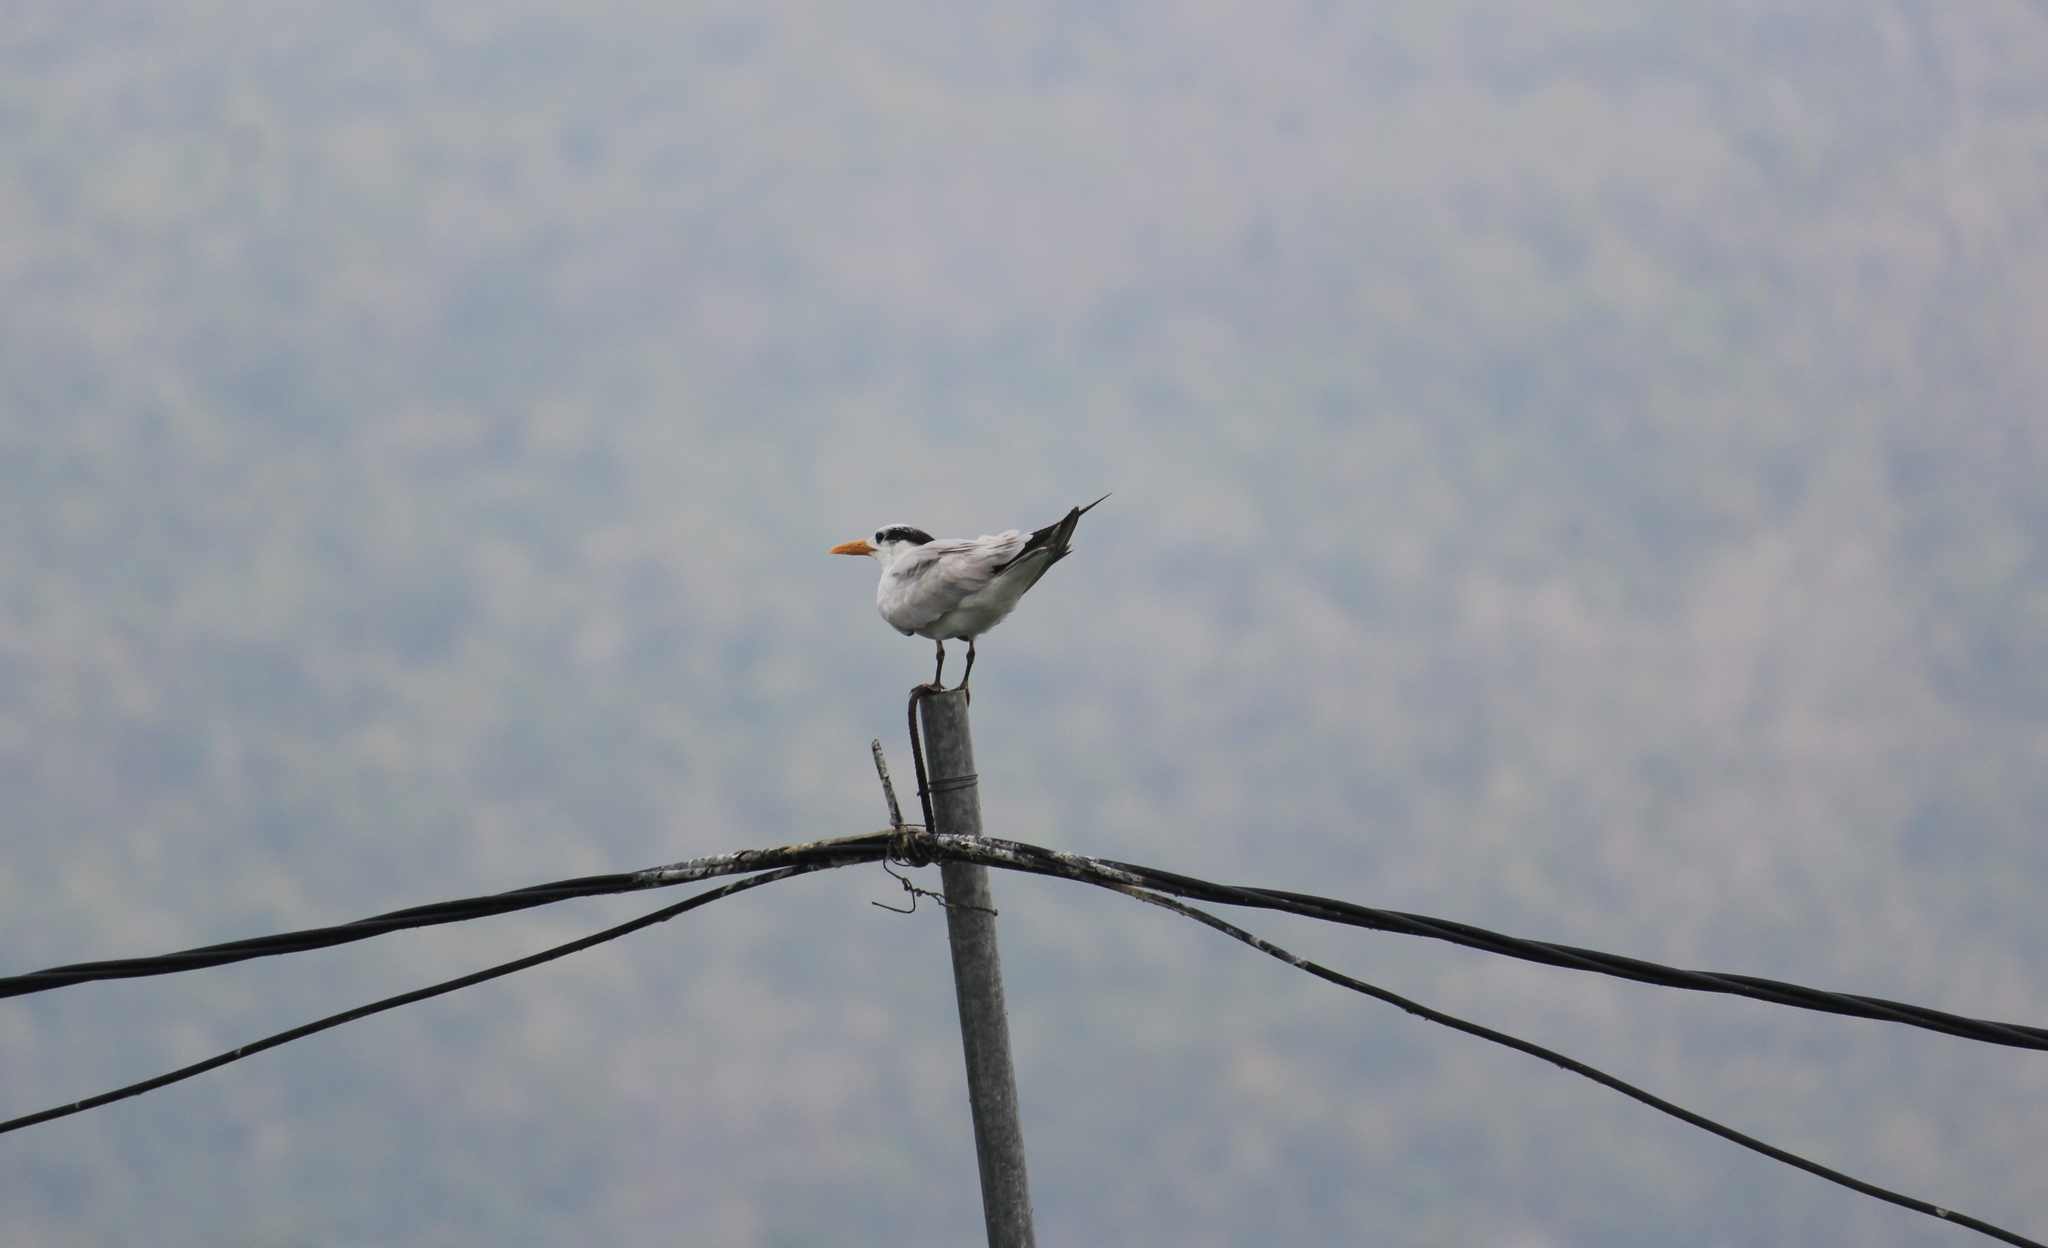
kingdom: Animalia
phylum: Chordata
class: Aves
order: Charadriiformes
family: Laridae
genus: Thalasseus
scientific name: Thalasseus maximus
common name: Royal tern
